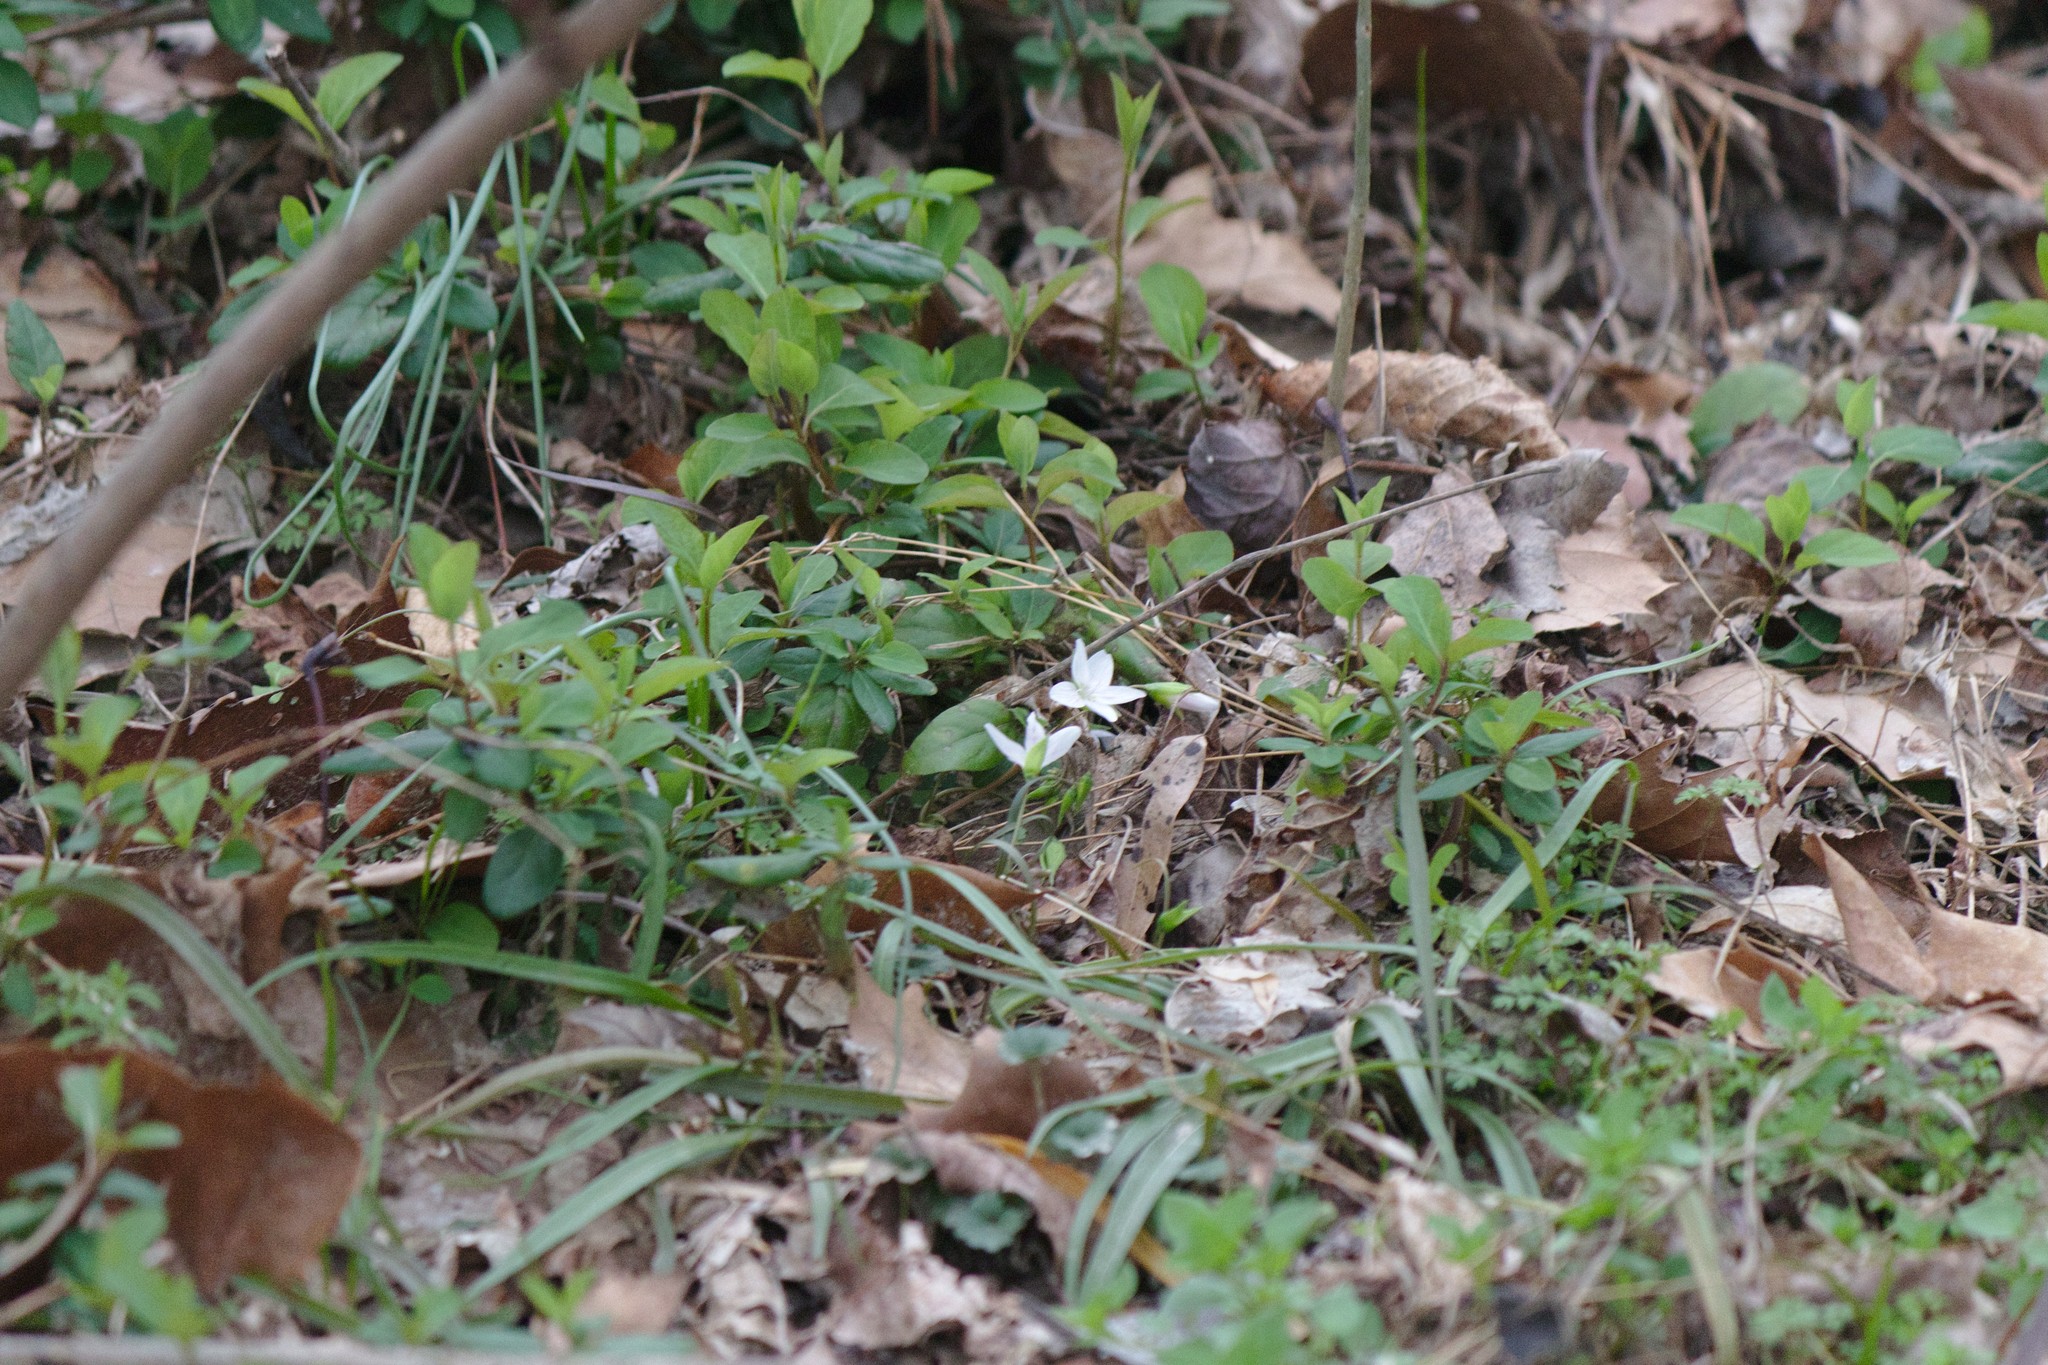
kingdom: Plantae
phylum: Tracheophyta
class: Magnoliopsida
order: Caryophyllales
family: Montiaceae
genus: Claytonia
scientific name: Claytonia virginica
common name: Virginia springbeauty
